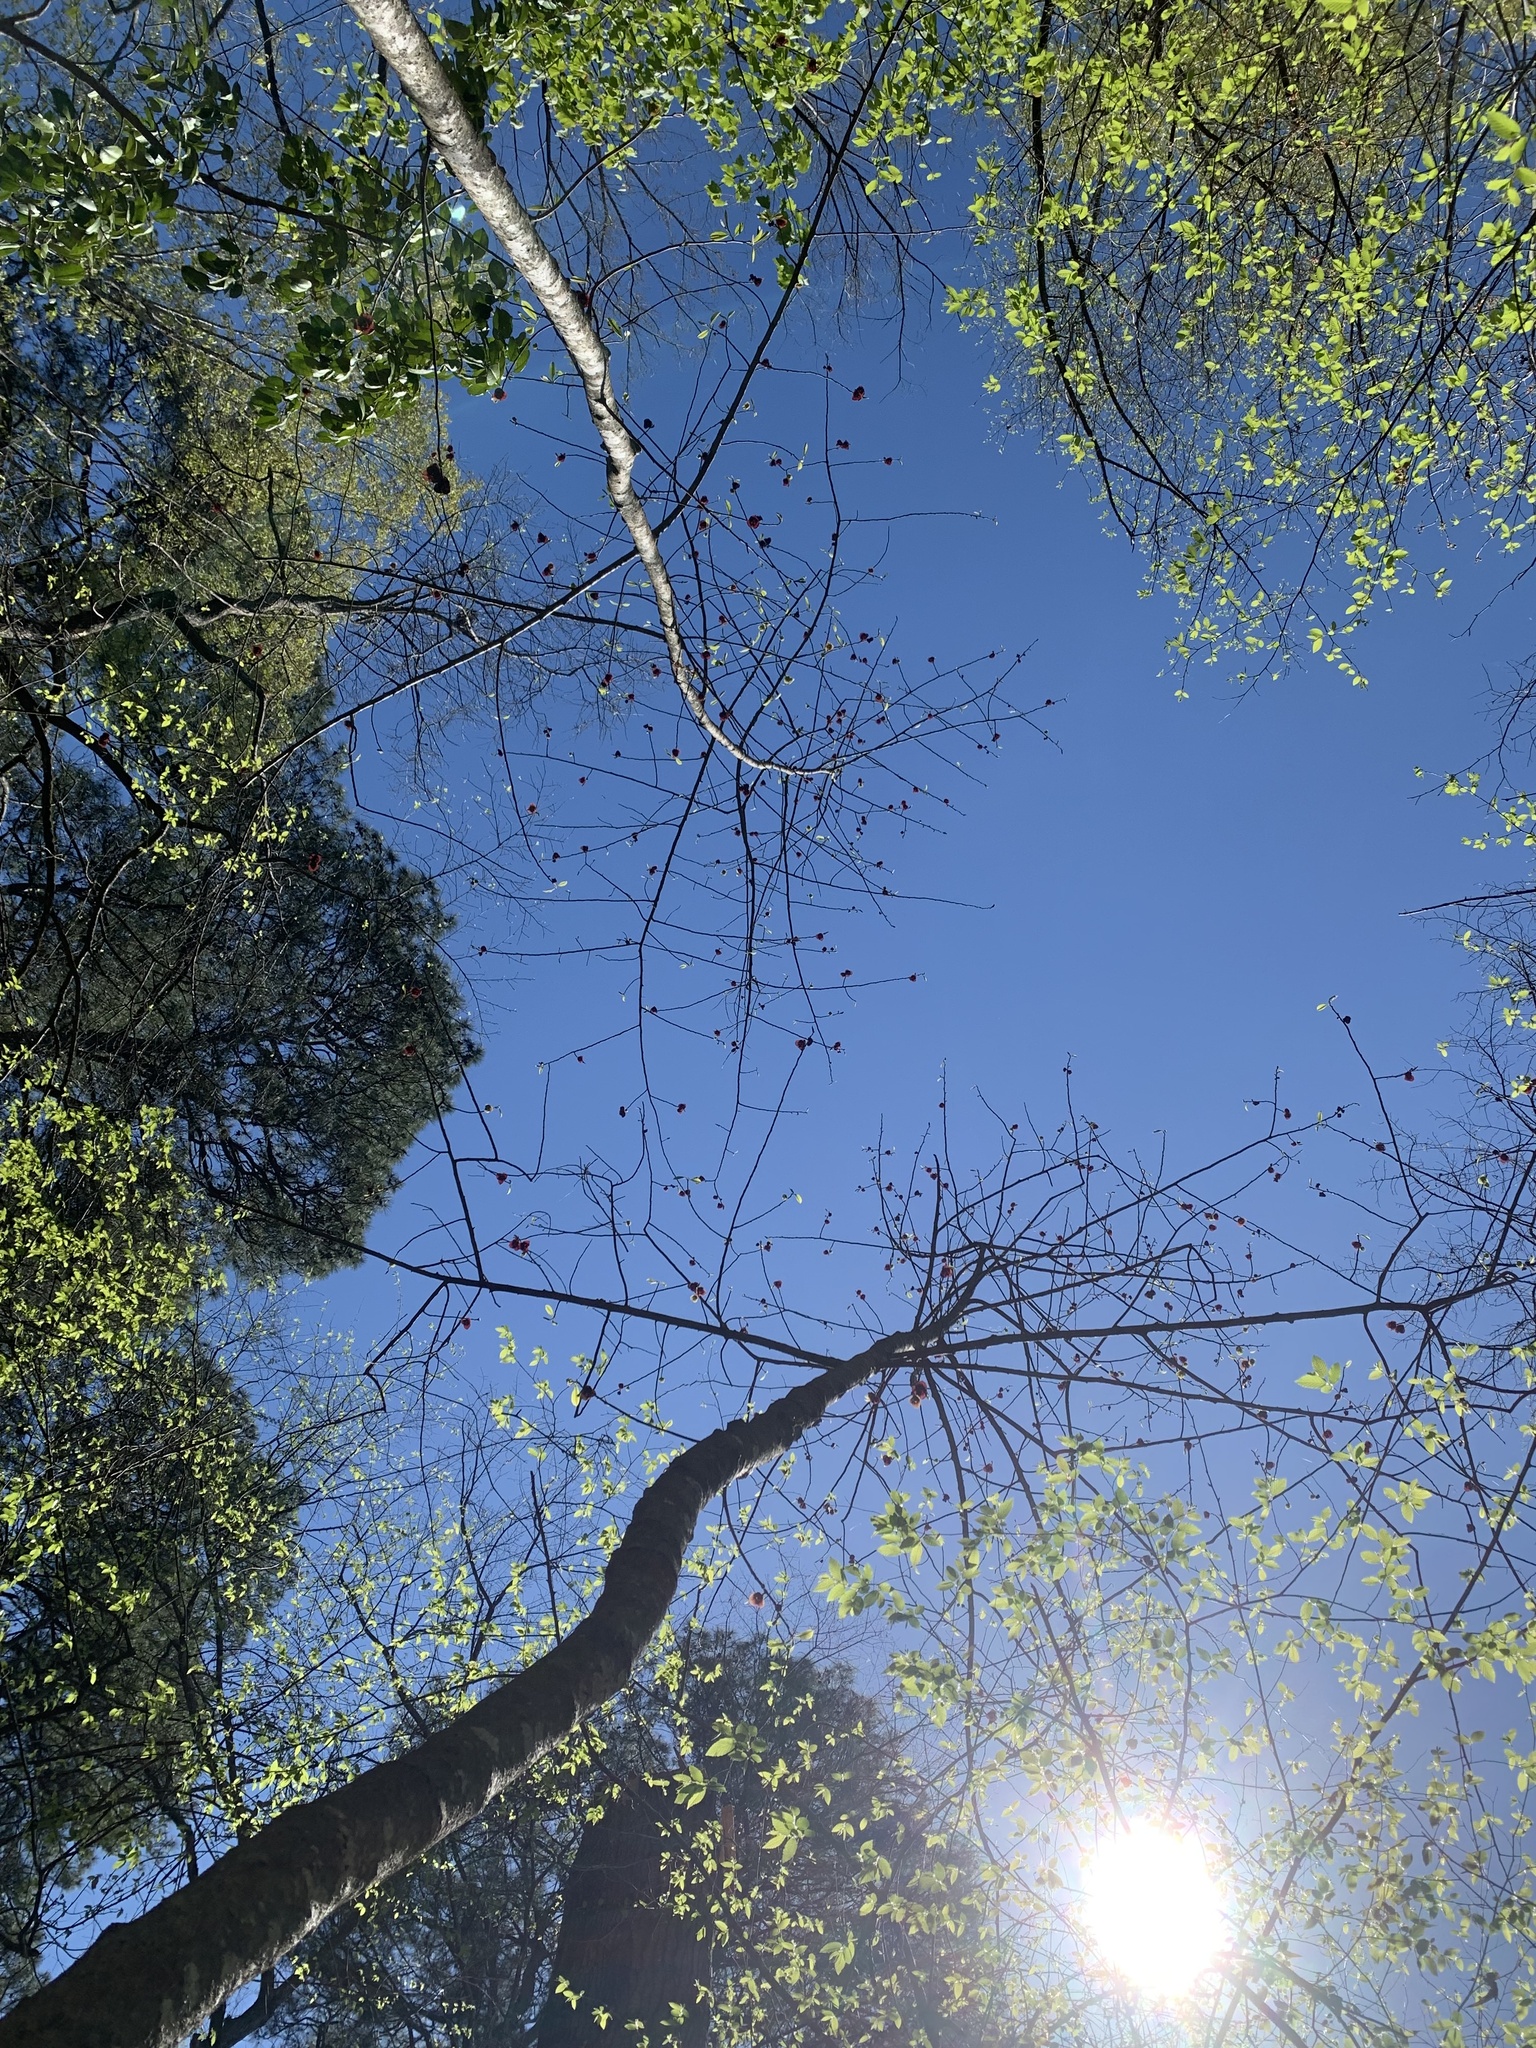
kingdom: Plantae
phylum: Tracheophyta
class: Magnoliopsida
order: Magnoliales
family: Annonaceae
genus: Asimina
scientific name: Asimina triloba
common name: Dog-banana
